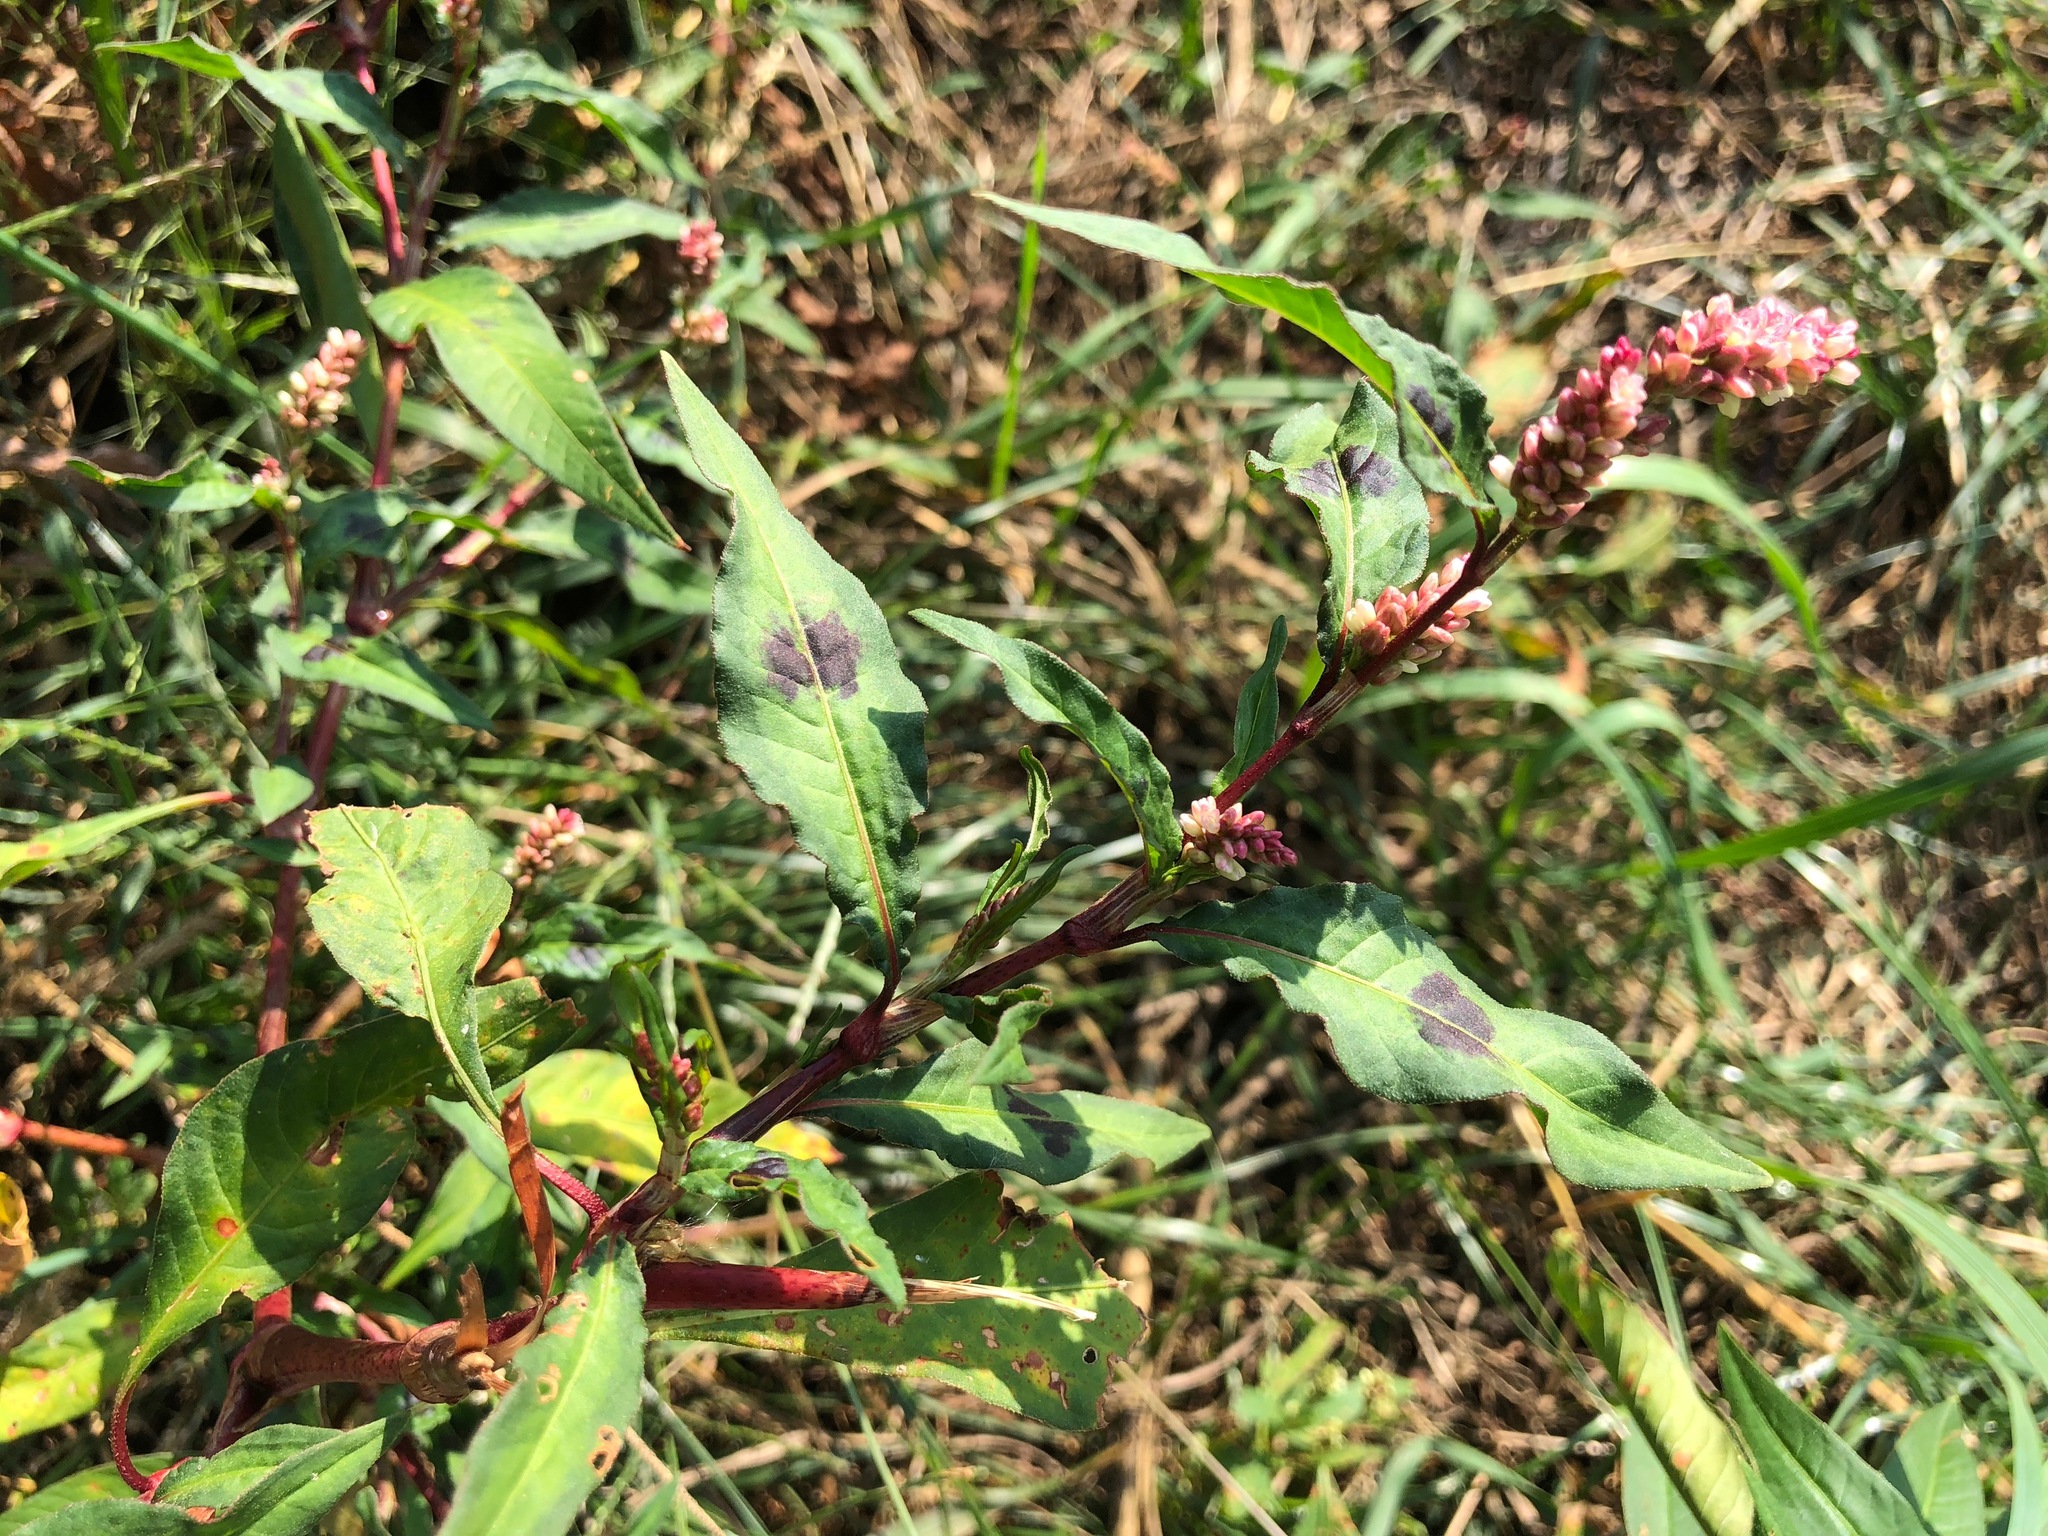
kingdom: Plantae
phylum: Tracheophyta
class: Magnoliopsida
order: Caryophyllales
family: Polygonaceae
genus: Persicaria
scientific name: Persicaria lapathifolia
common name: Curlytop knotweed
